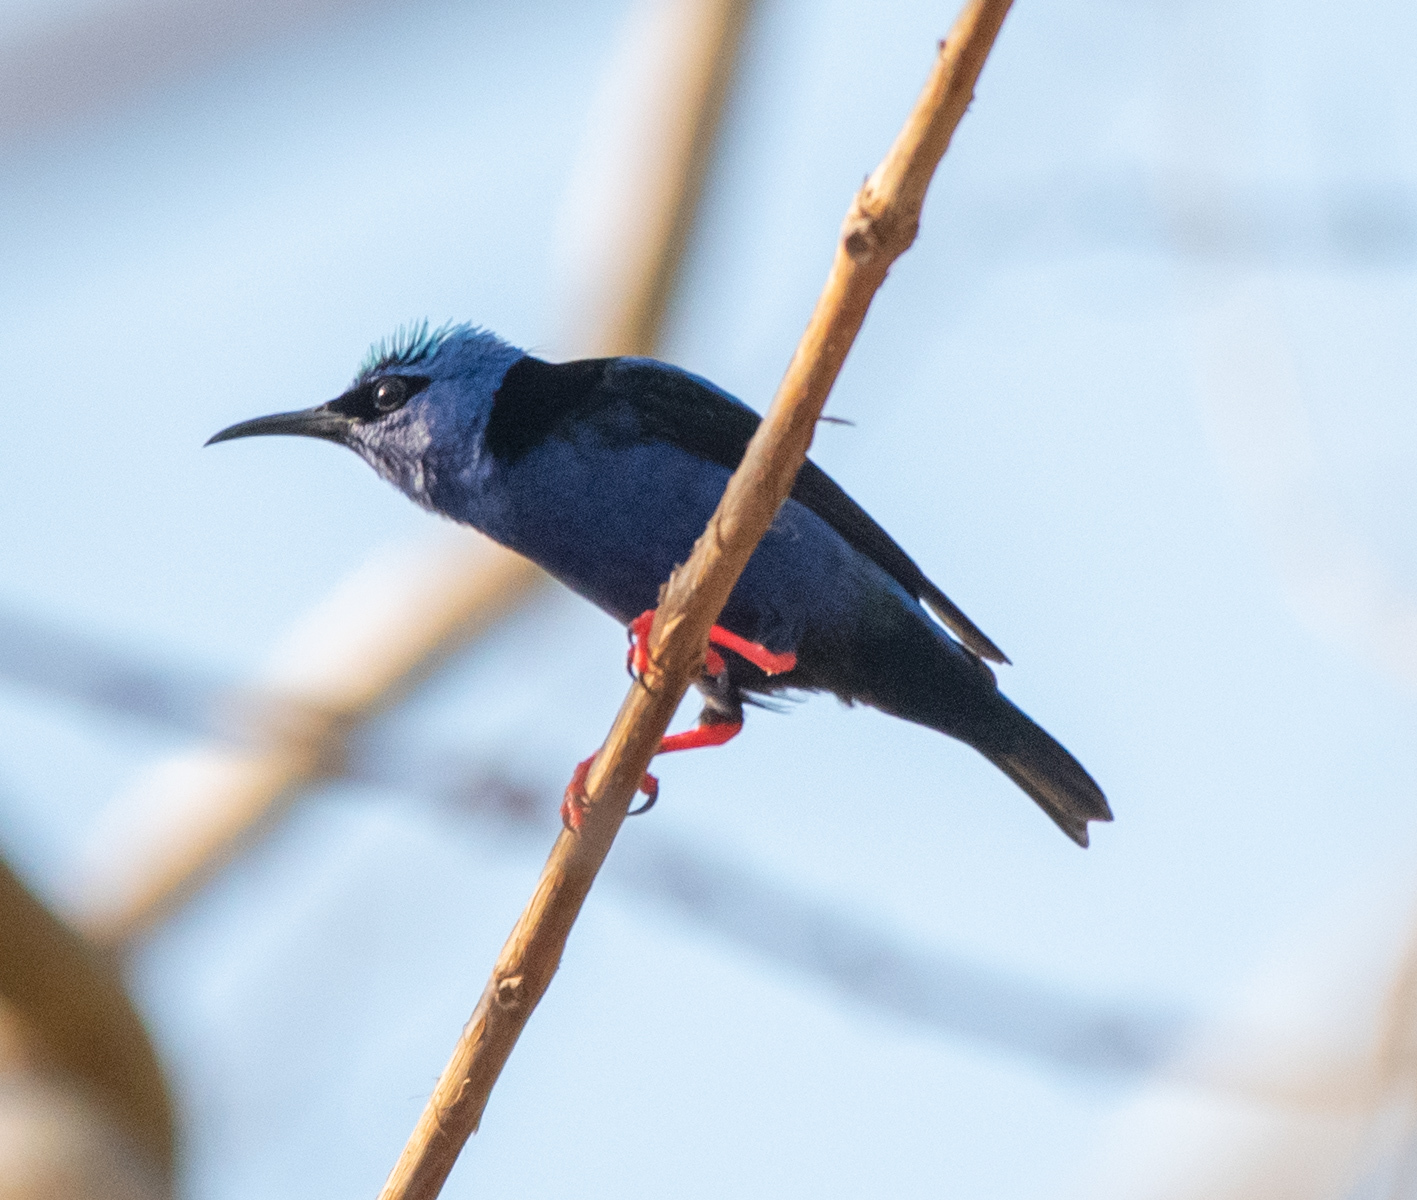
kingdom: Animalia
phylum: Chordata
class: Aves
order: Passeriformes
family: Thraupidae
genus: Cyanerpes
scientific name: Cyanerpes cyaneus
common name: Red-legged honeycreeper
